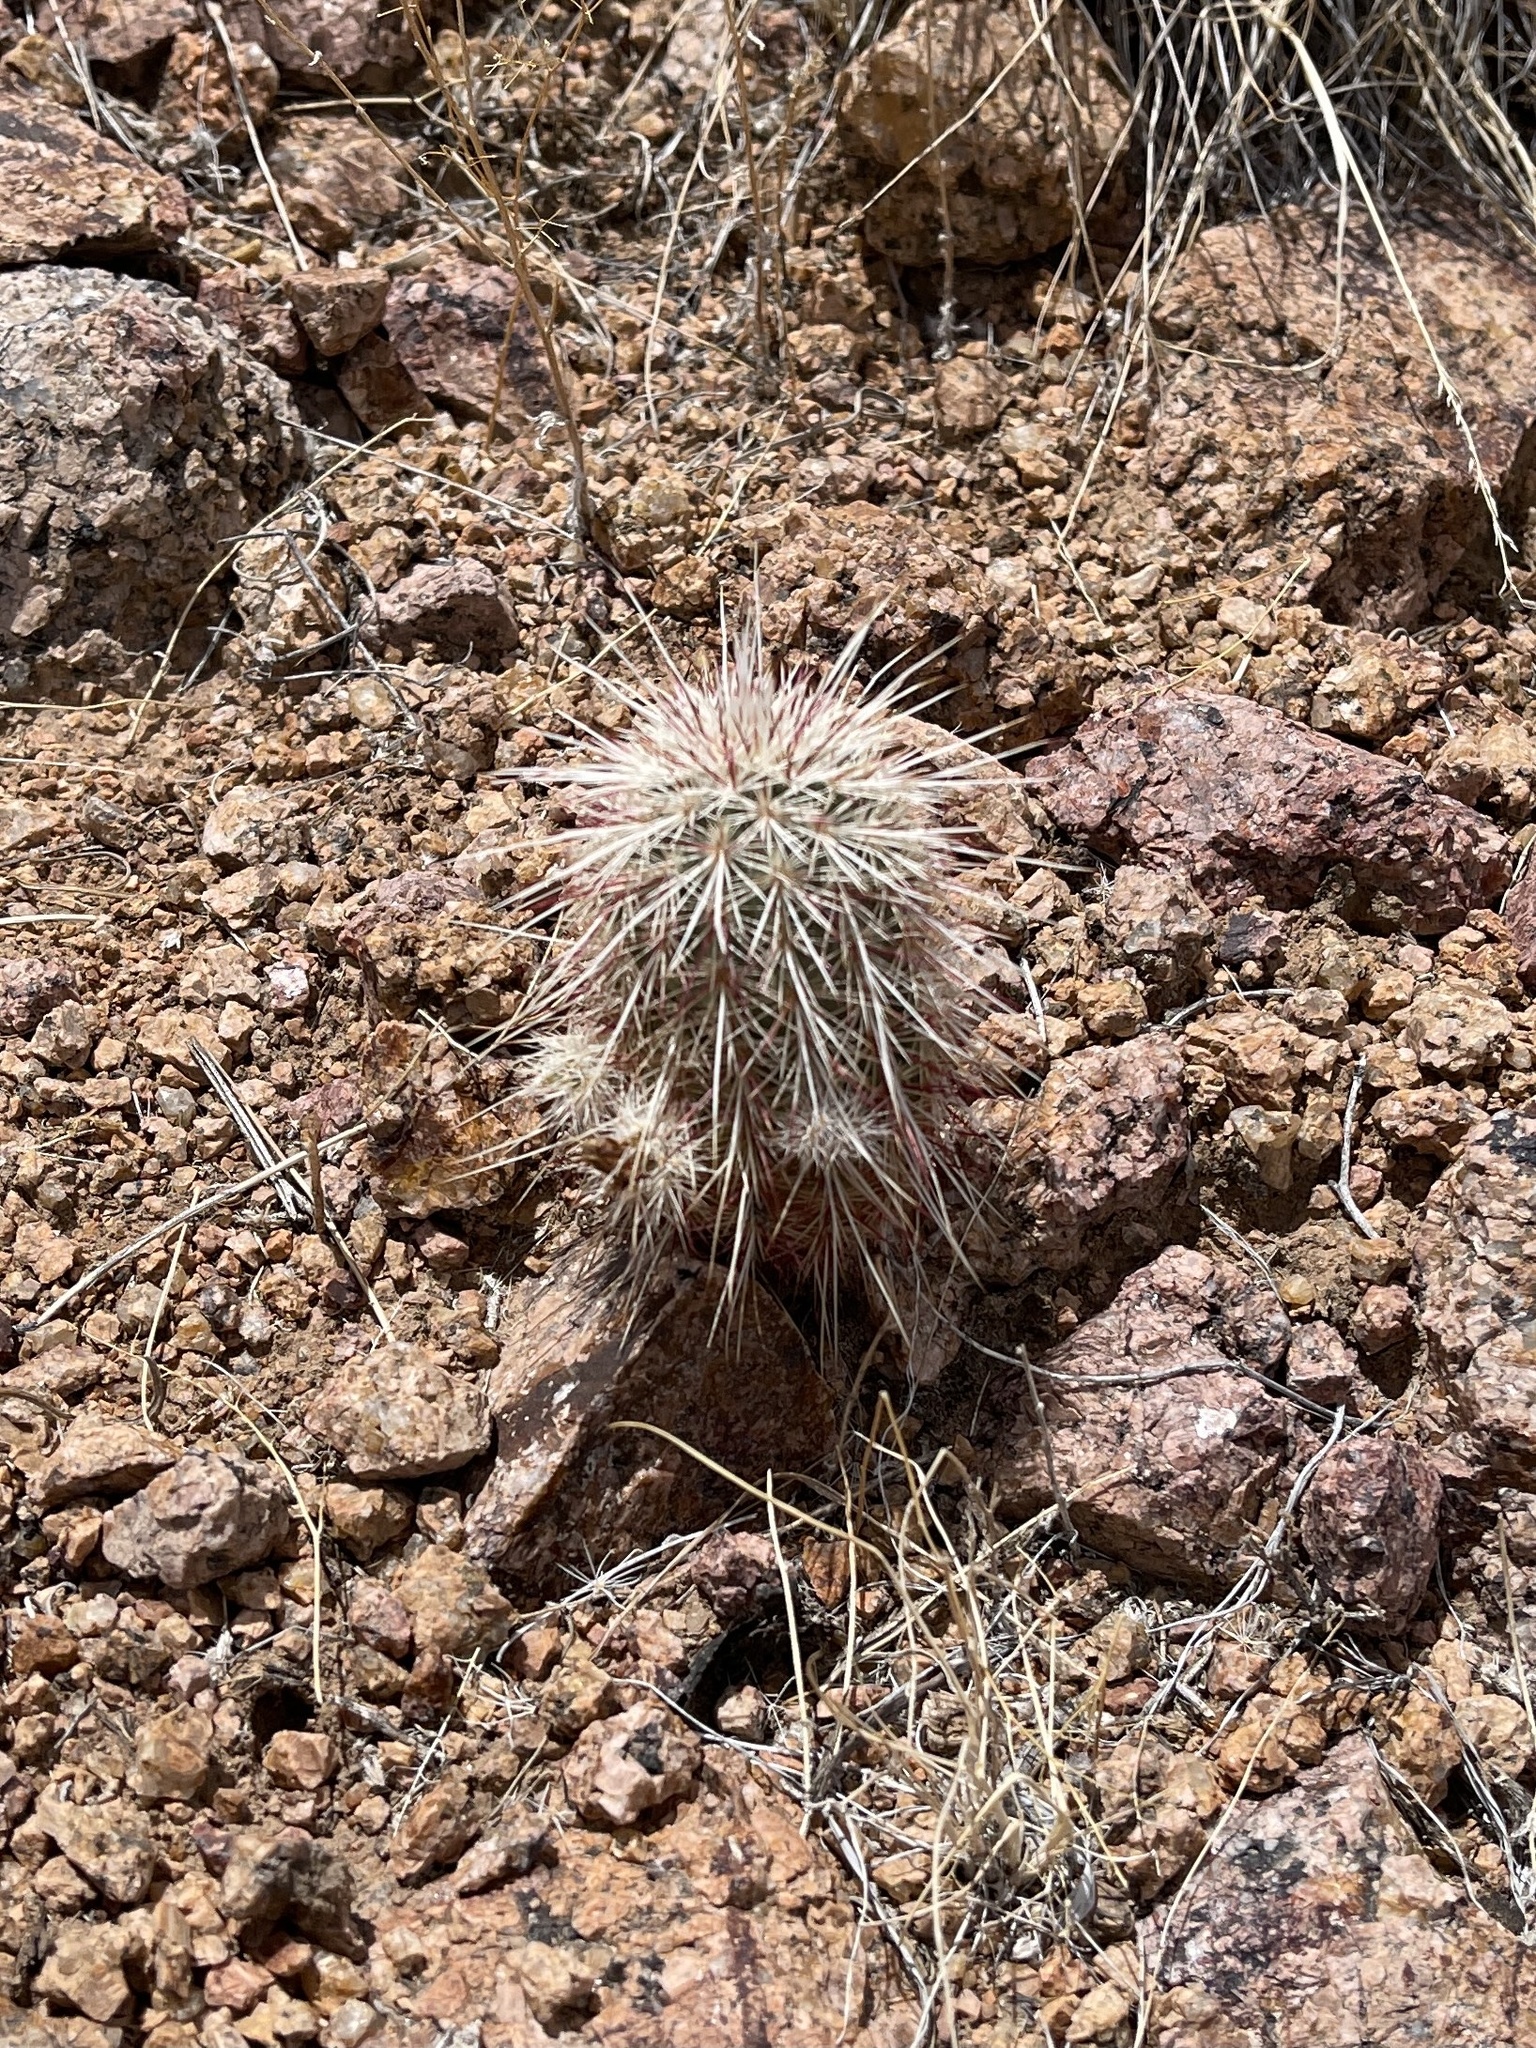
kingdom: Plantae
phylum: Tracheophyta
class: Magnoliopsida
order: Caryophyllales
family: Cactaceae
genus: Echinocereus
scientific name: Echinocereus viridiflorus
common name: Nylon hedgehog cactus
